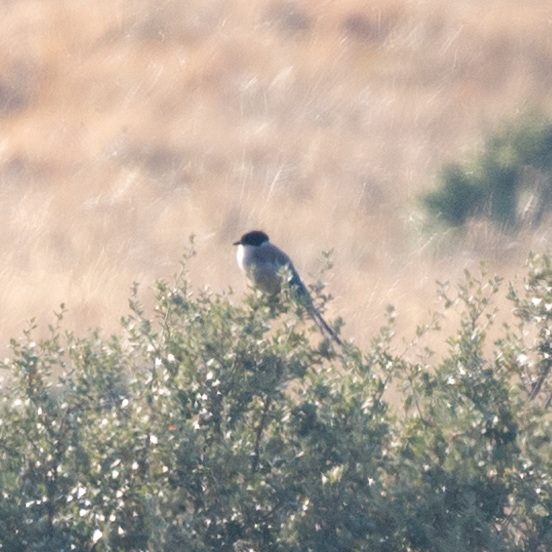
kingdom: Animalia
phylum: Chordata
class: Aves
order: Passeriformes
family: Corvidae
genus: Cyanopica
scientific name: Cyanopica cooki
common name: Iberian magpie
